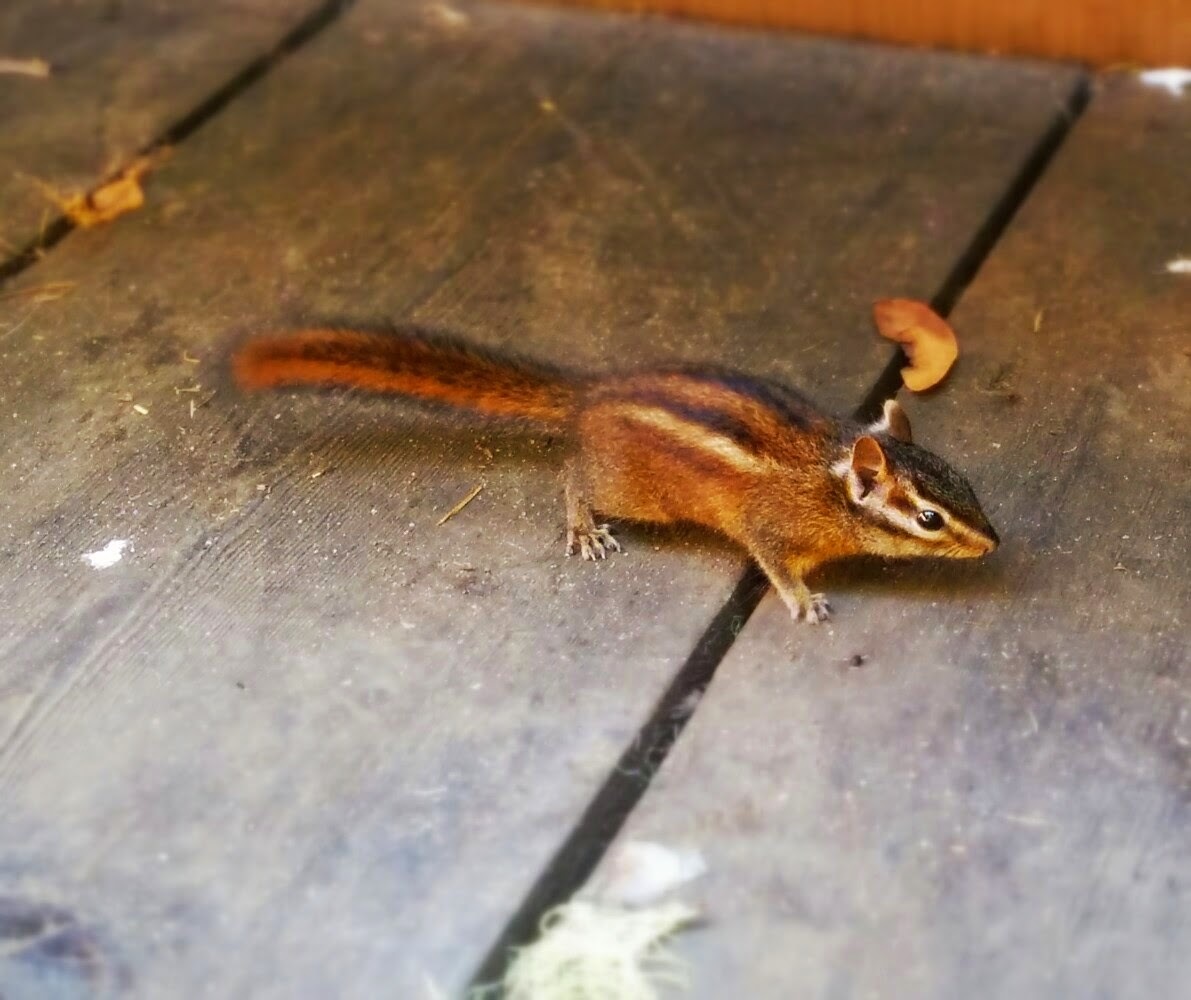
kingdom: Animalia
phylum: Chordata
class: Mammalia
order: Rodentia
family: Sciuridae
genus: Tamias
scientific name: Tamias sonomae
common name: Sonoma chipmunk
